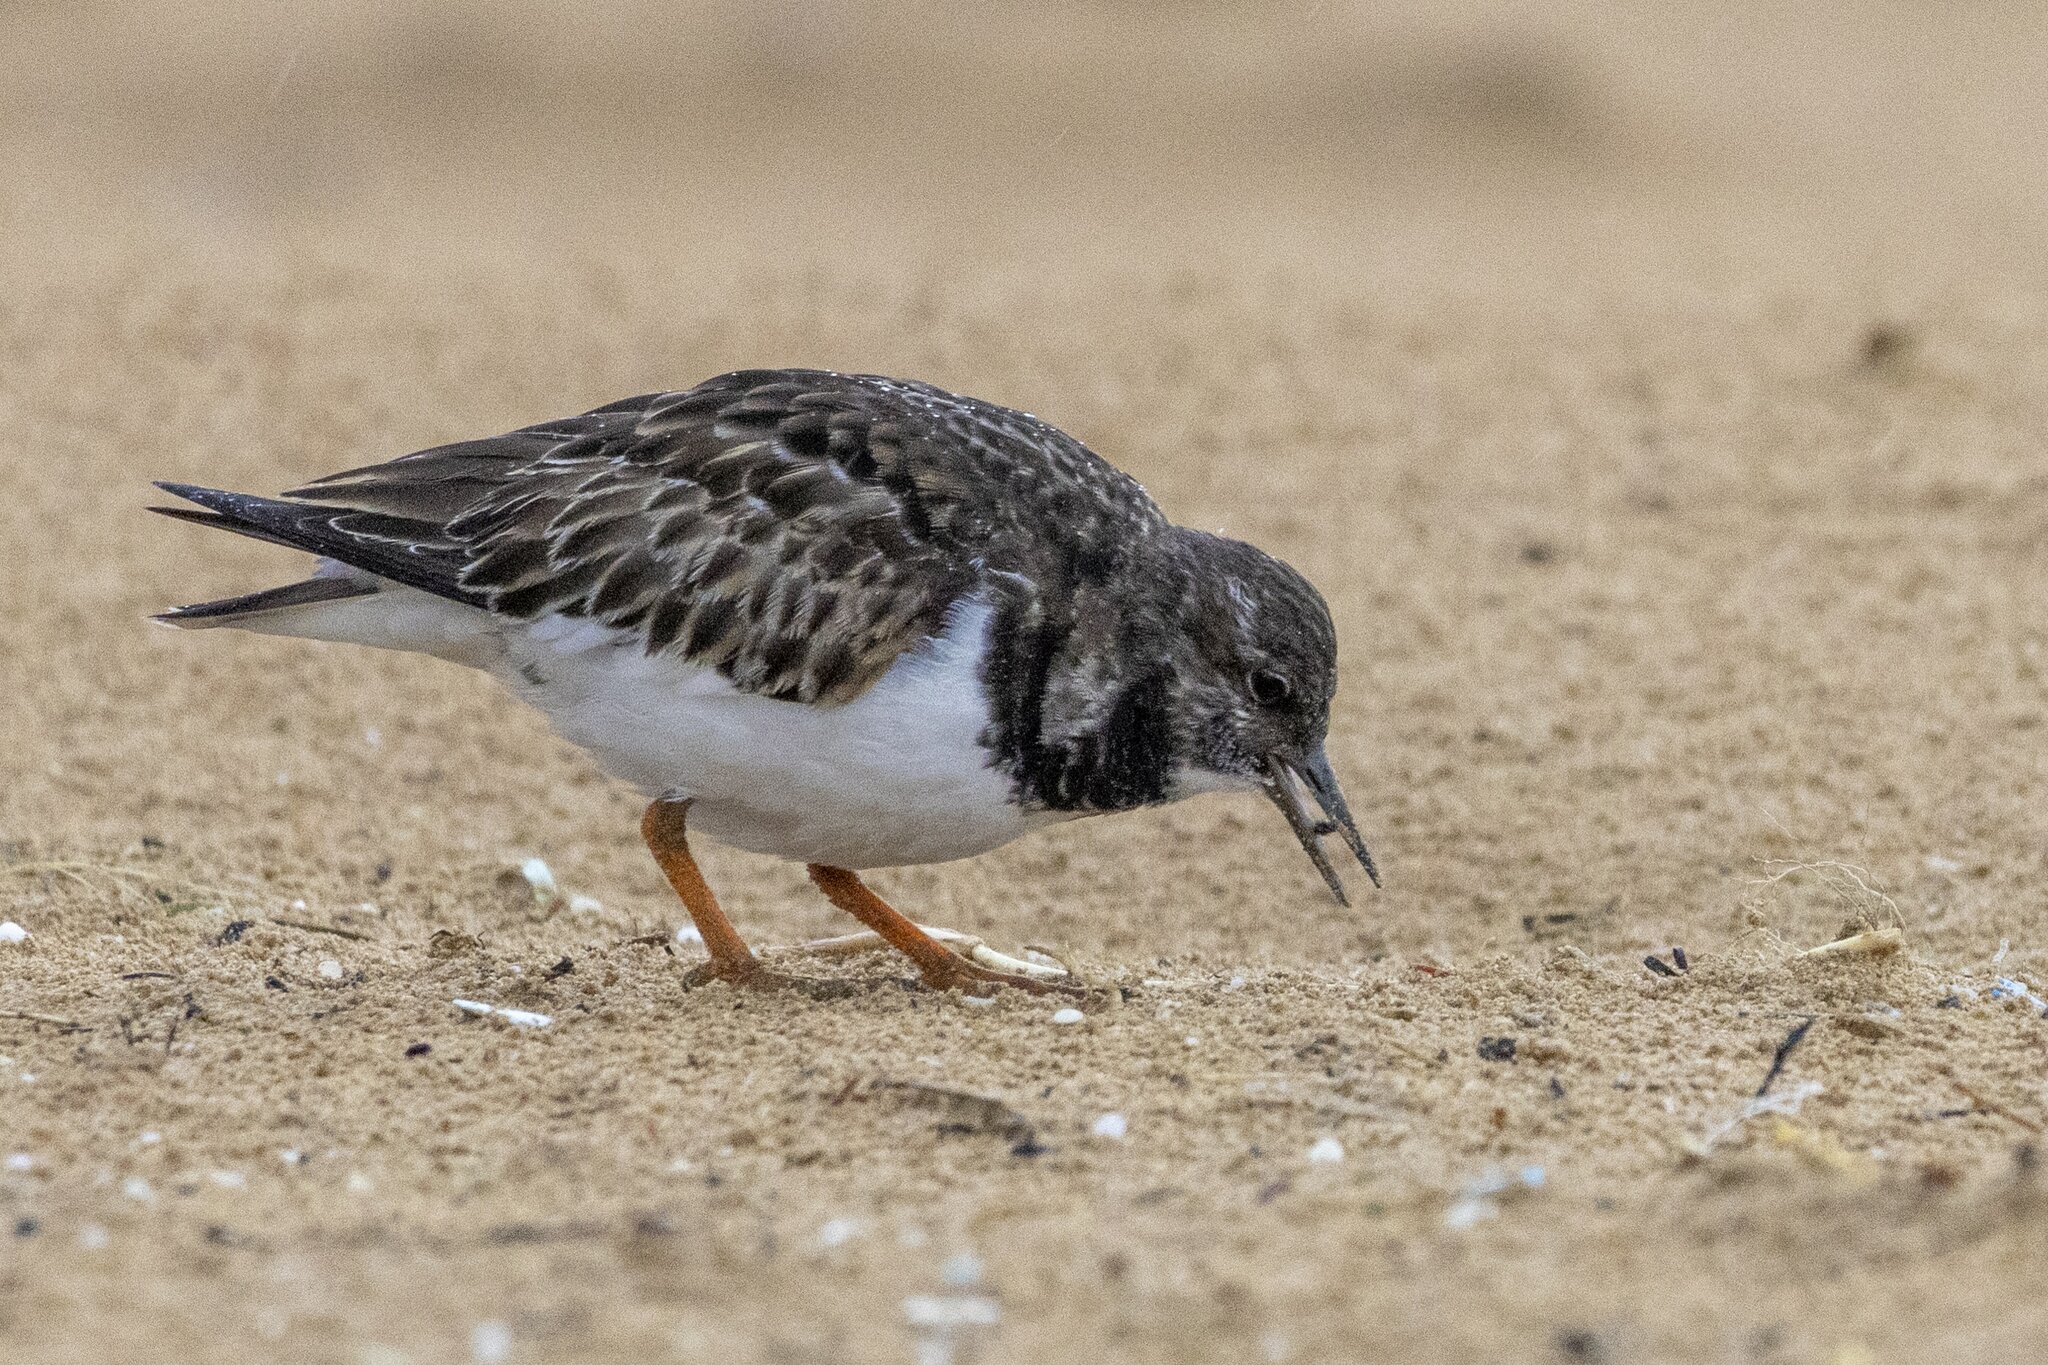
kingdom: Animalia
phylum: Chordata
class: Aves
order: Charadriiformes
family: Scolopacidae
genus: Arenaria
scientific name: Arenaria interpres
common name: Ruddy turnstone
